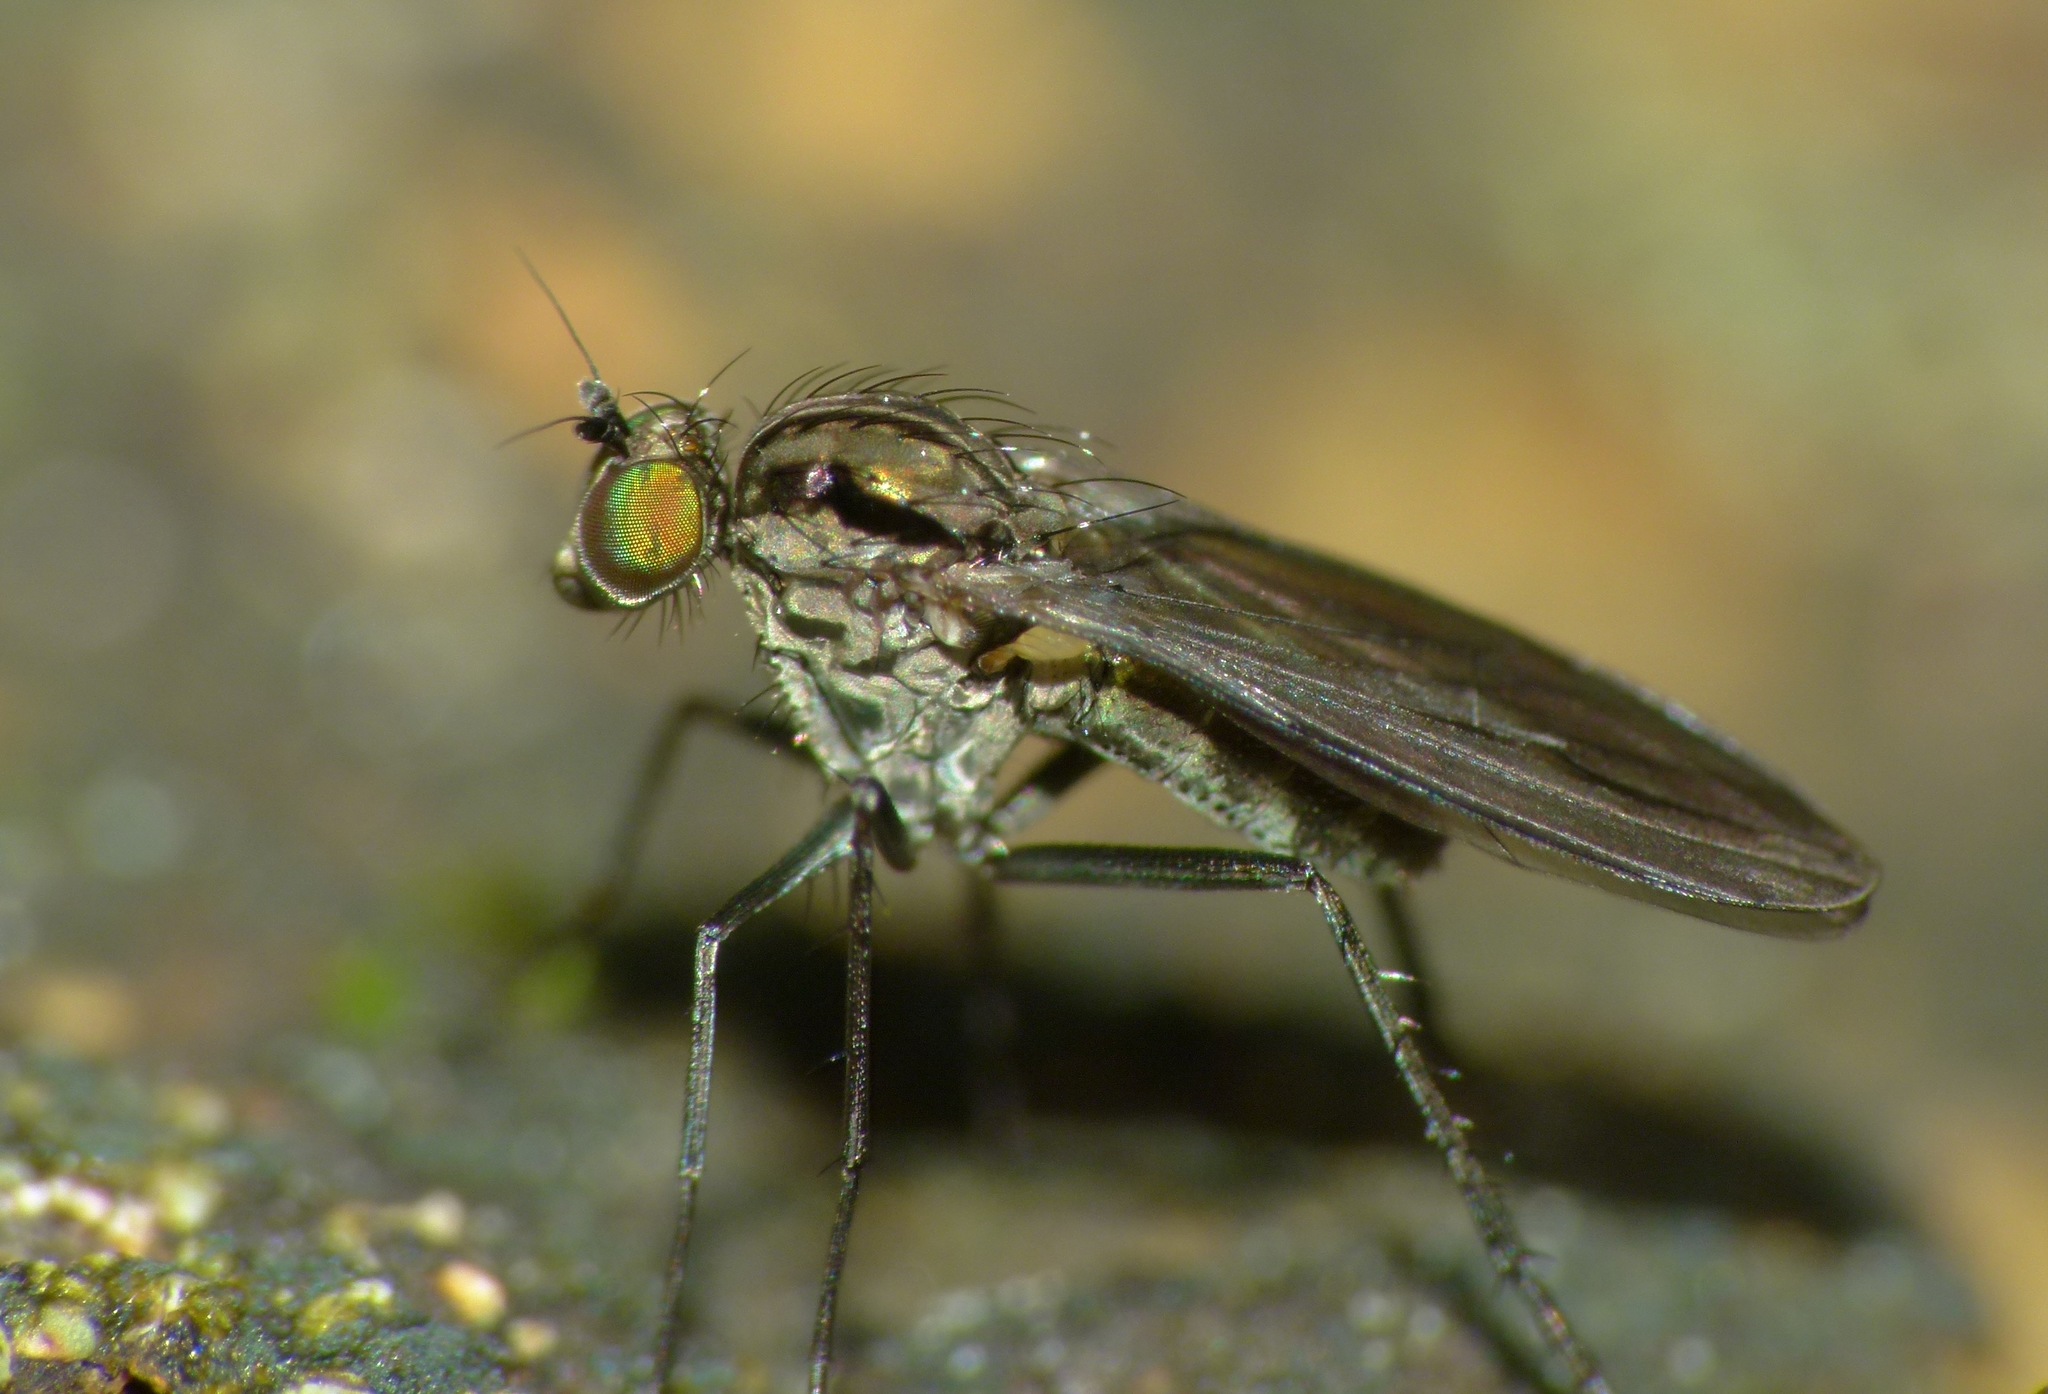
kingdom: Animalia
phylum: Arthropoda
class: Insecta
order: Diptera
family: Dolichopodidae
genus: Scelloides
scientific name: Scelloides ornatipes
